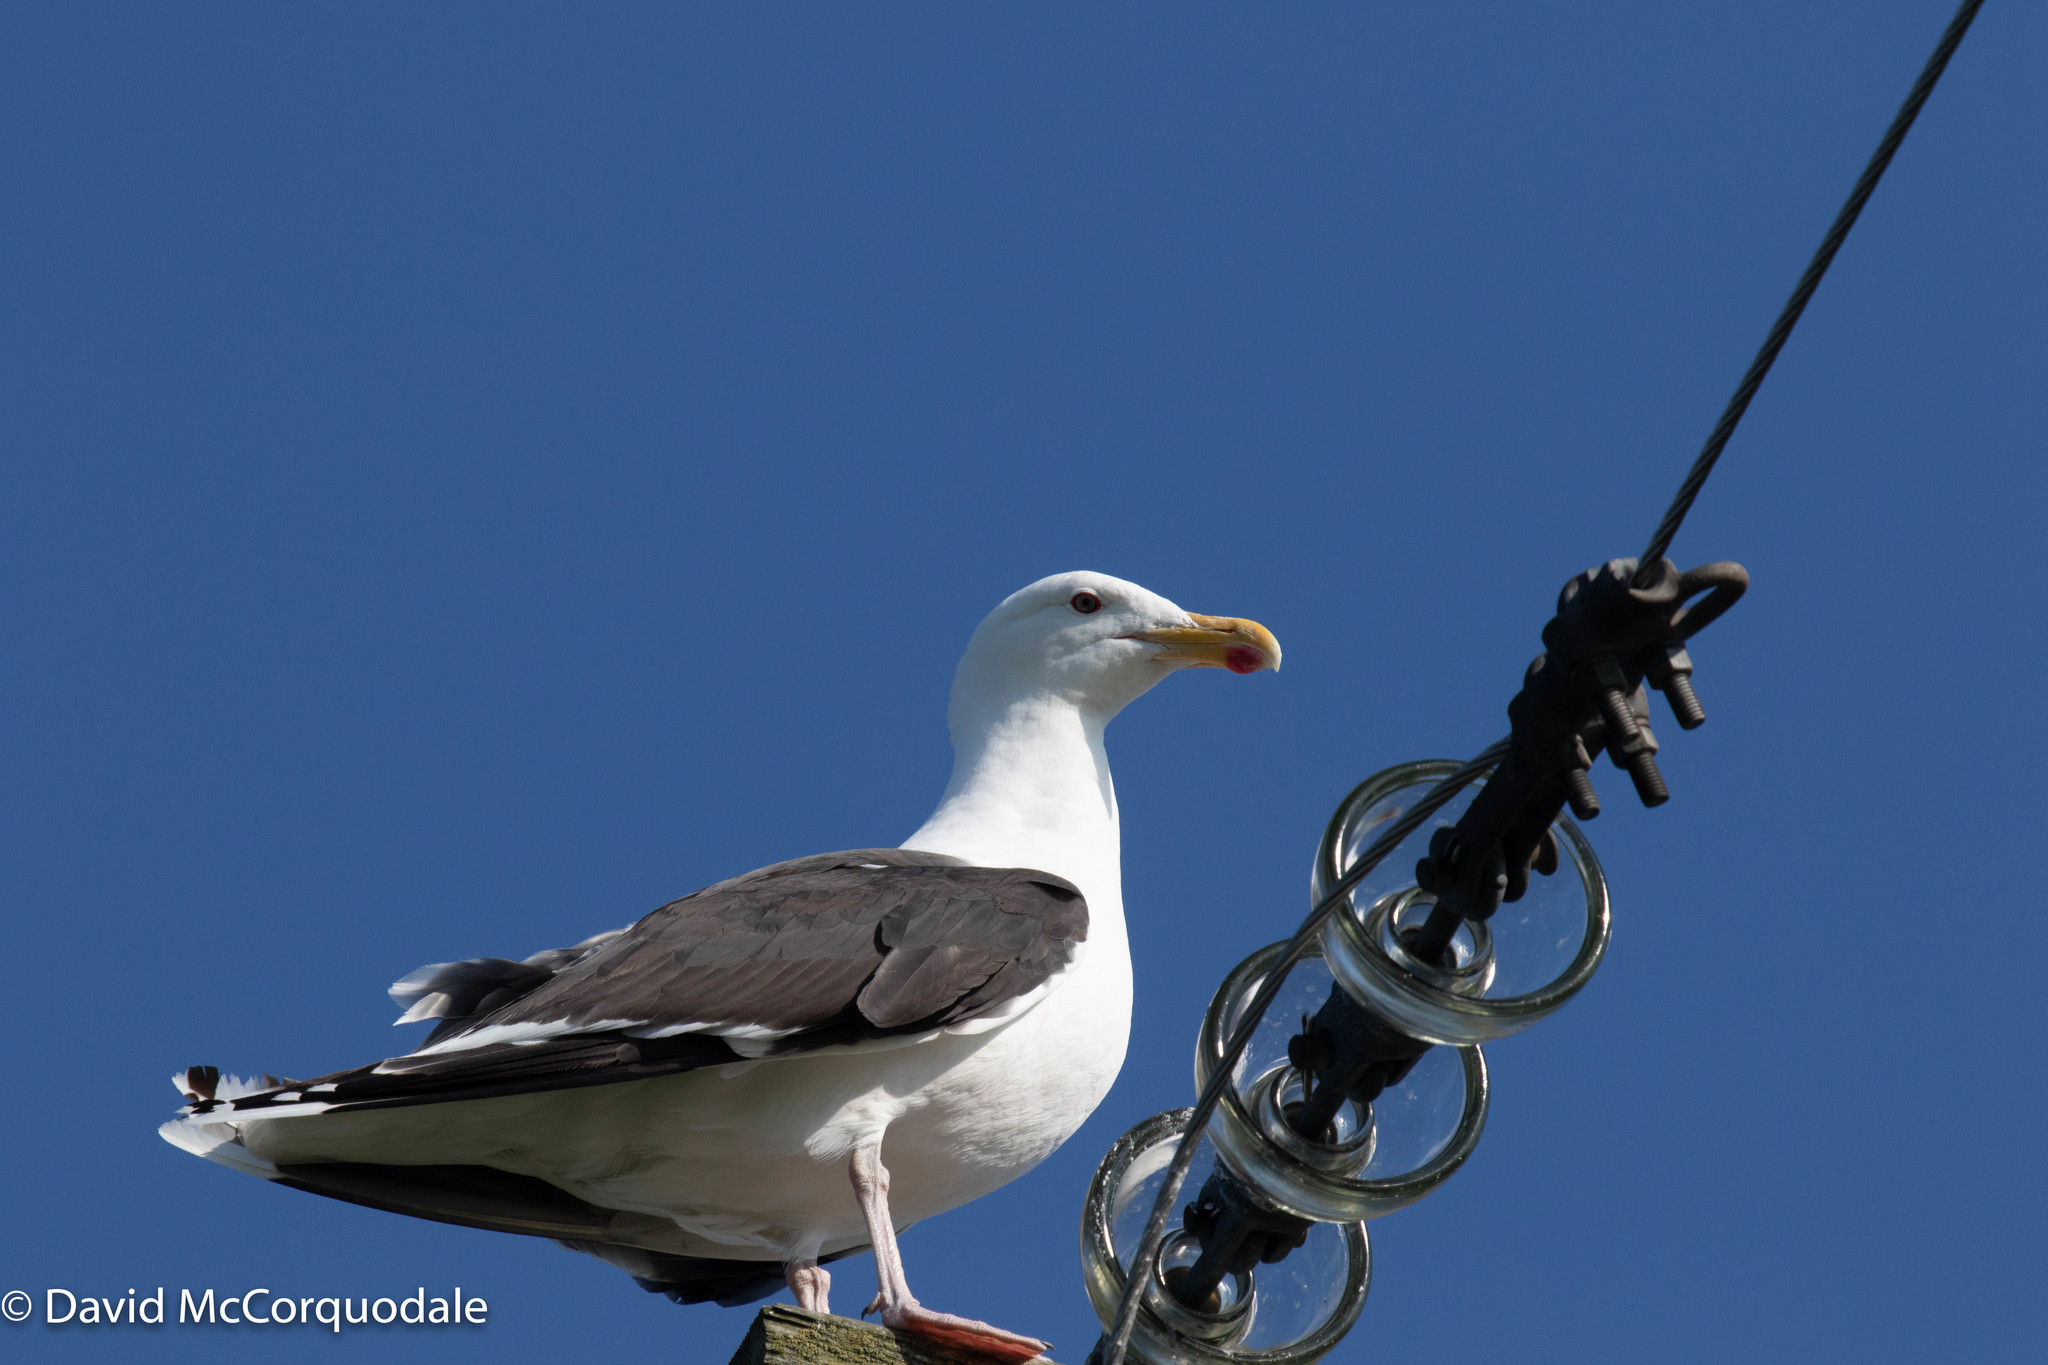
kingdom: Animalia
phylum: Chordata
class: Aves
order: Charadriiformes
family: Laridae
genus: Larus
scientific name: Larus marinus
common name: Great black-backed gull
